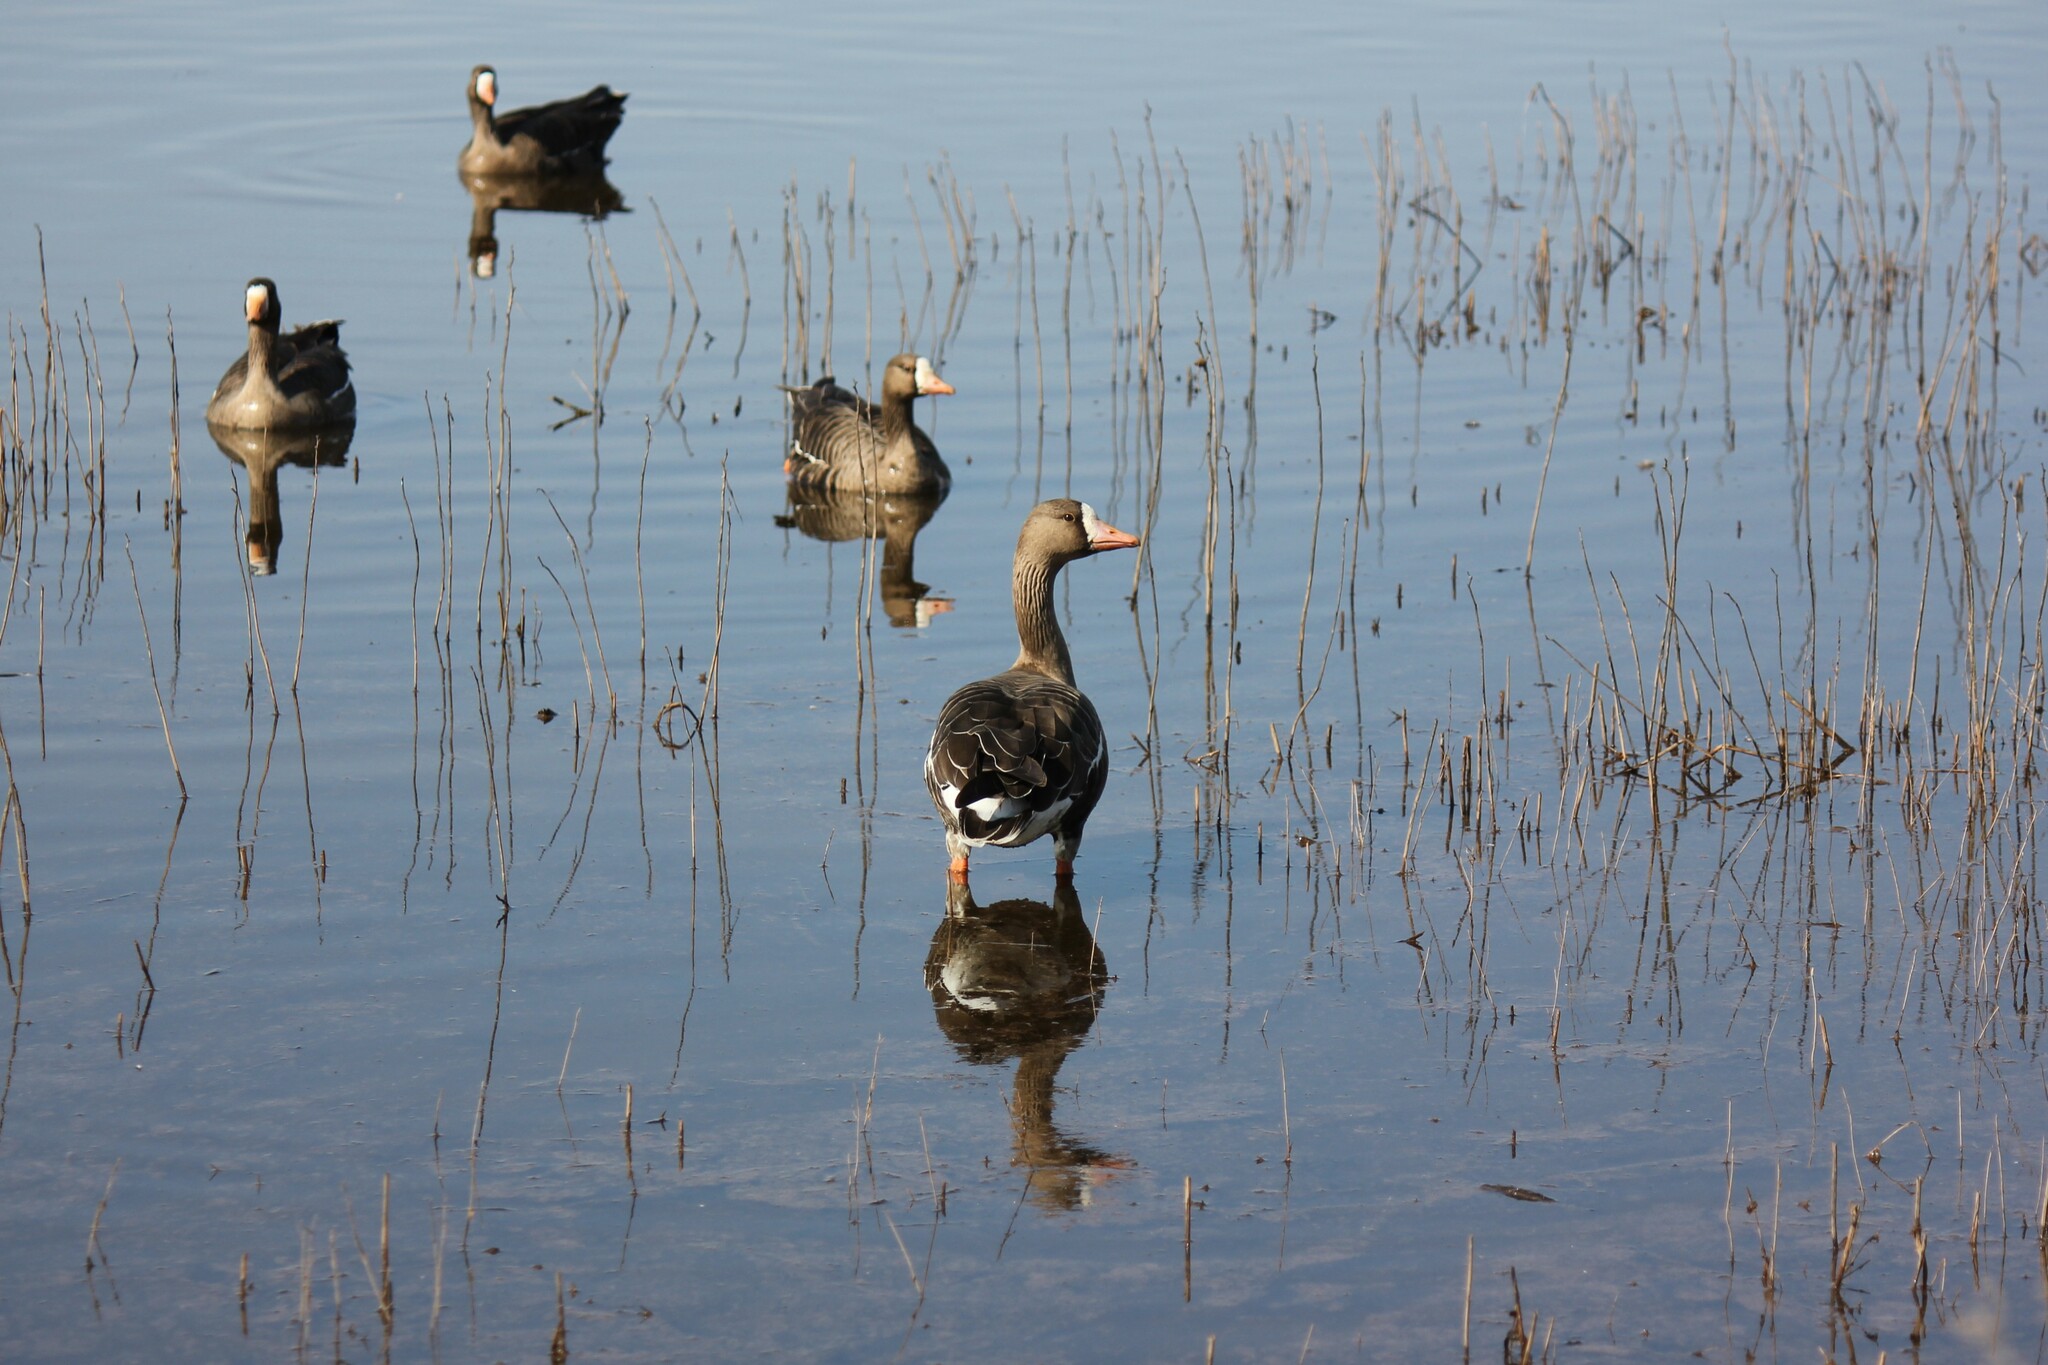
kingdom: Animalia
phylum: Chordata
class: Aves
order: Anseriformes
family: Anatidae
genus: Anser
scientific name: Anser albifrons
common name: Greater white-fronted goose
